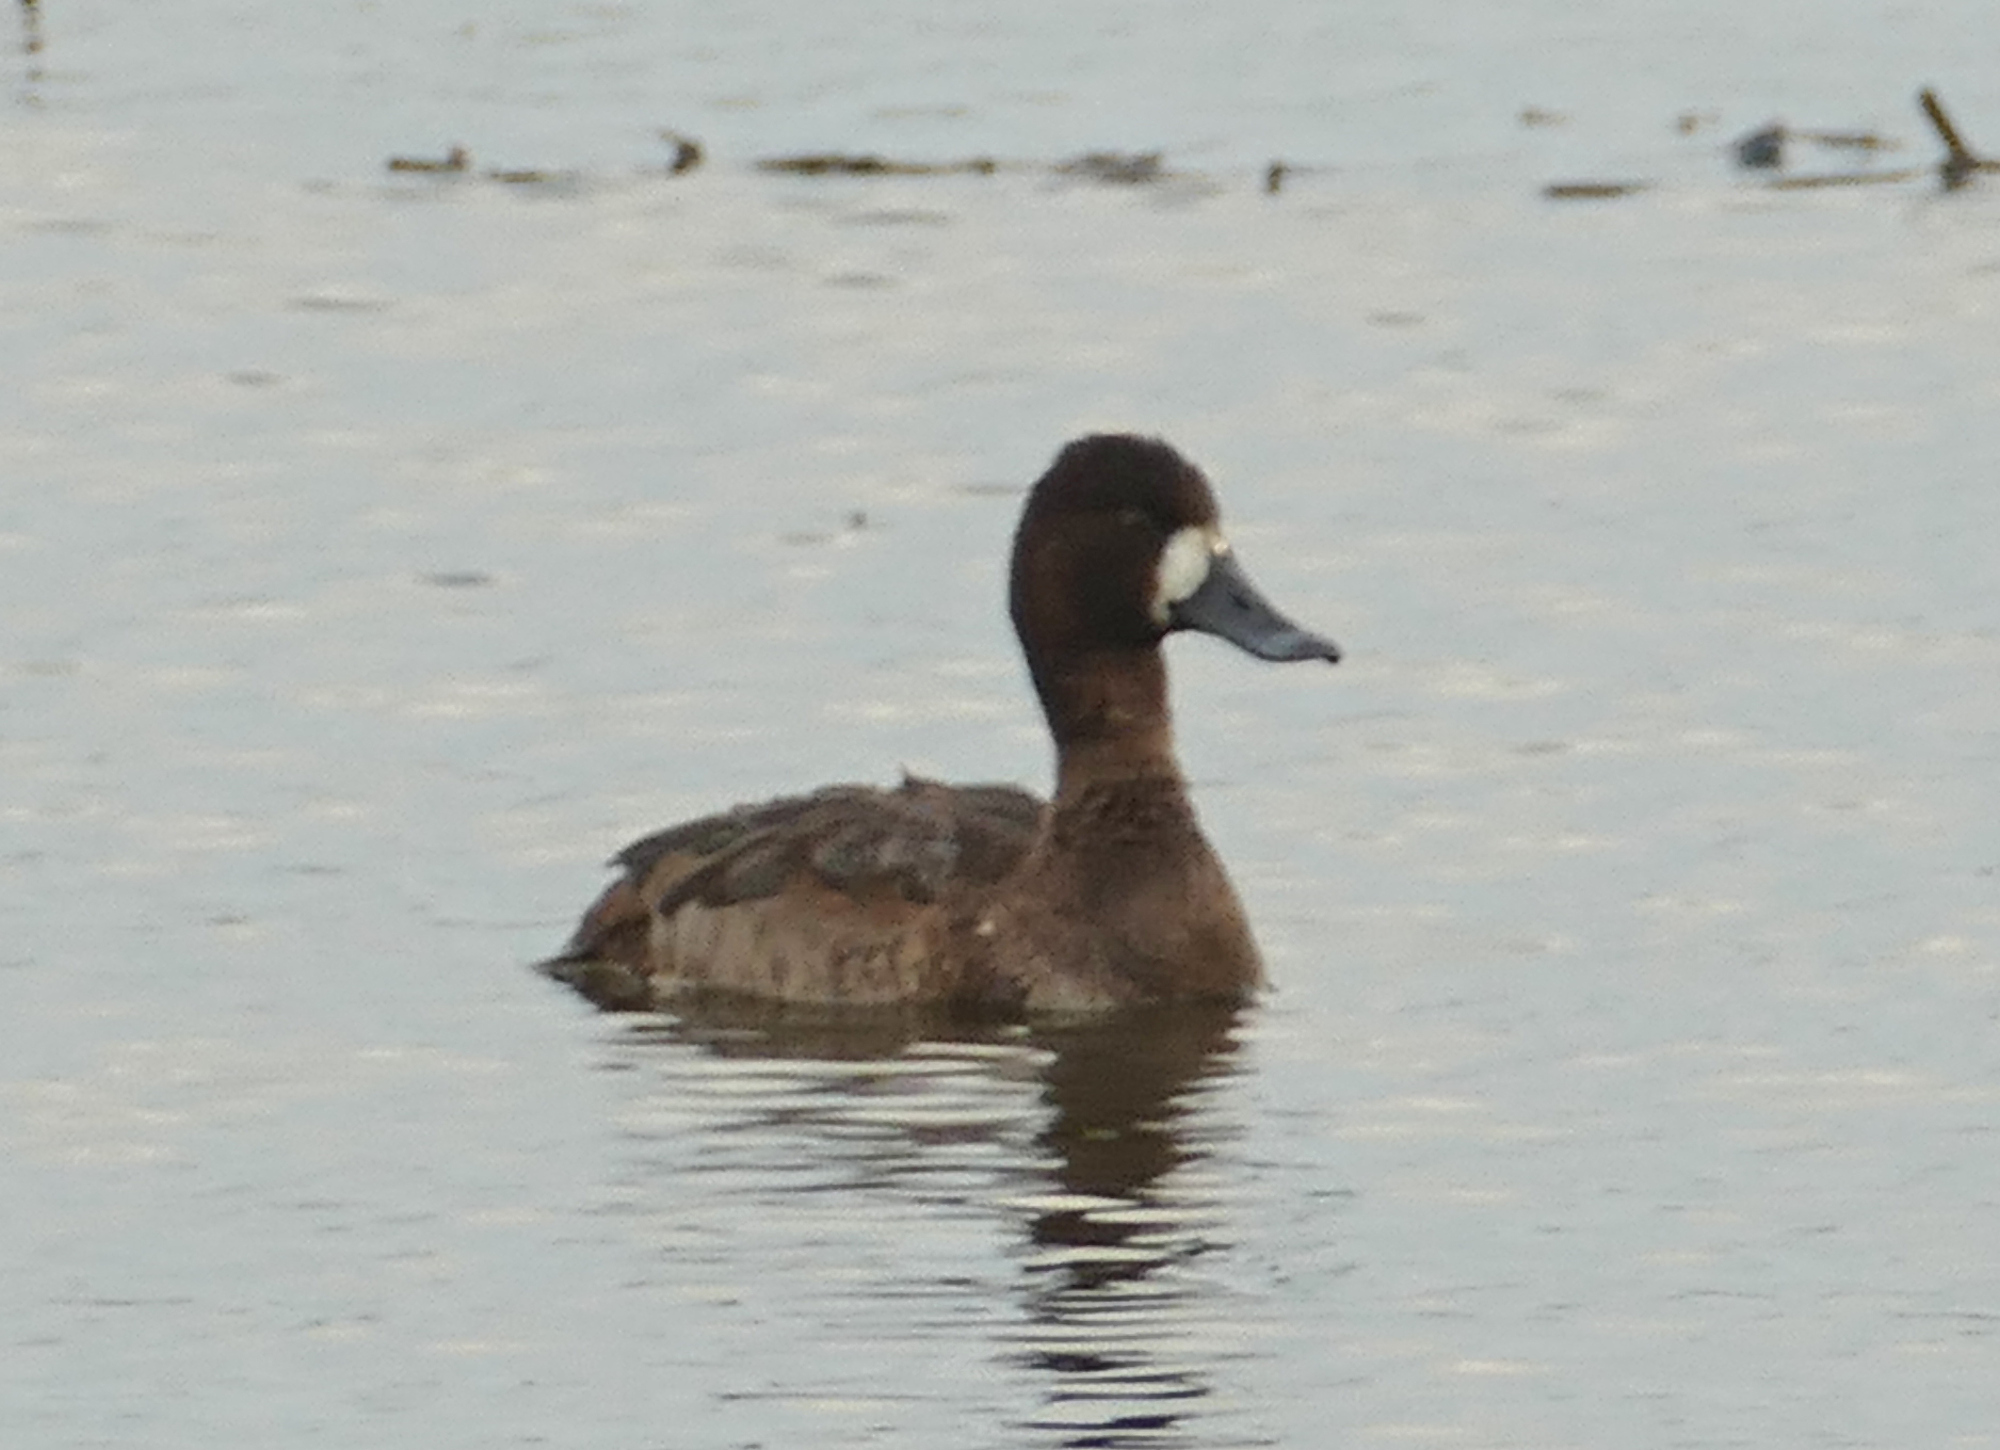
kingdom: Animalia
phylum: Chordata
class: Aves
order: Anseriformes
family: Anatidae
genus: Aythya
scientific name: Aythya affinis
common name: Lesser scaup
